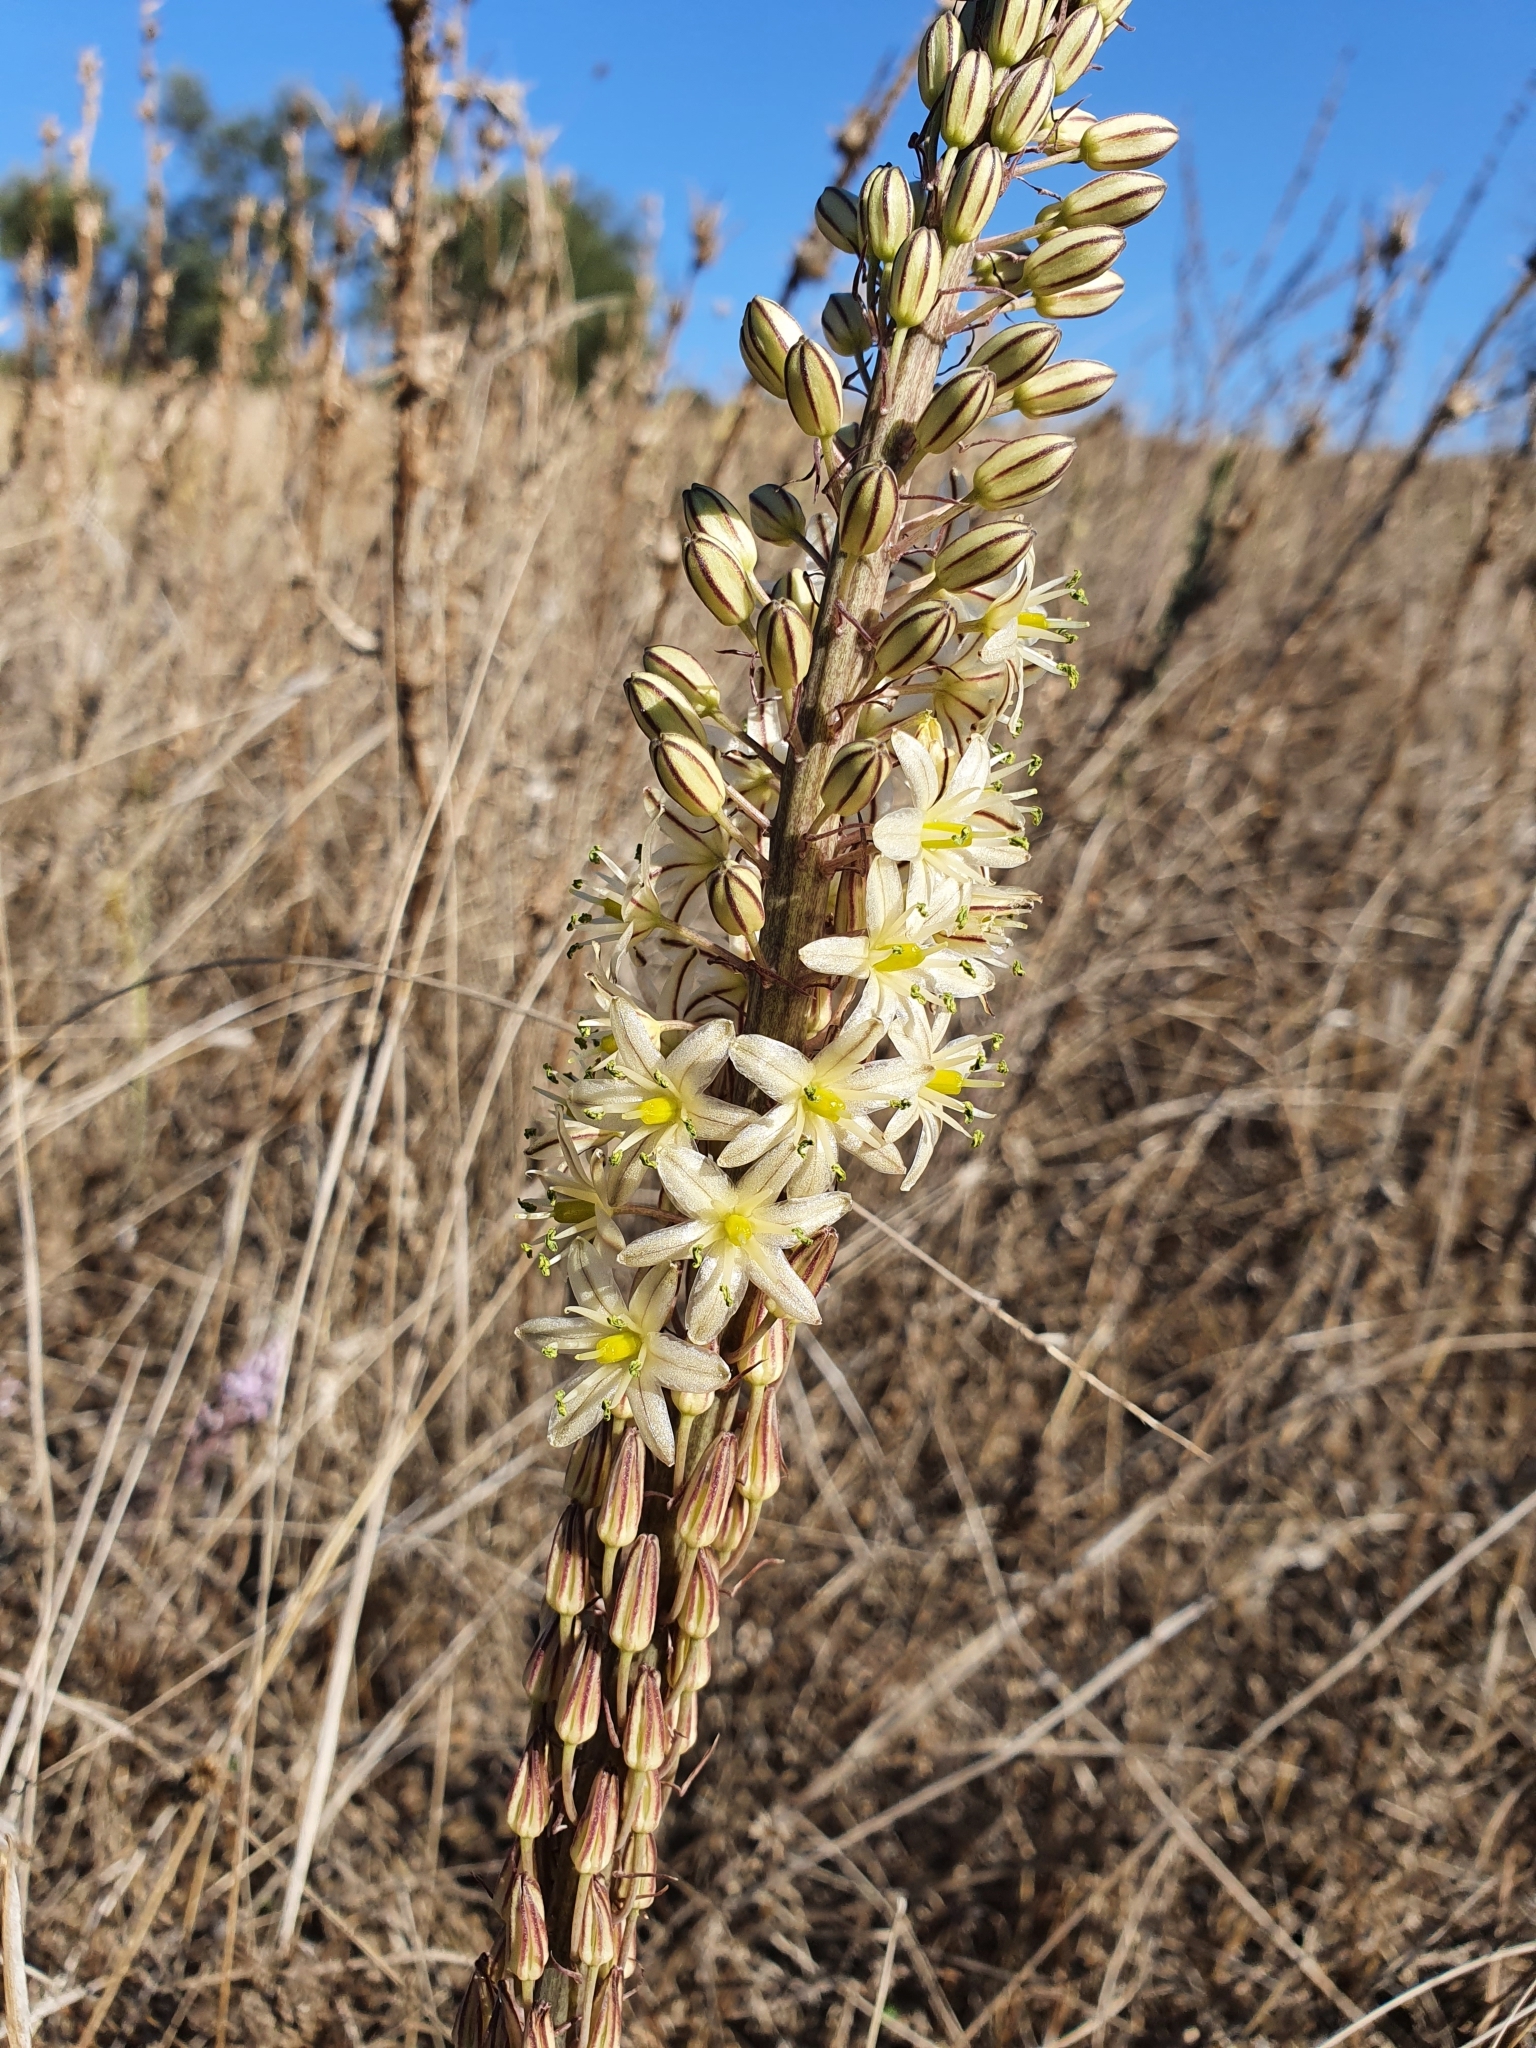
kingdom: Plantae
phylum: Tracheophyta
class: Liliopsida
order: Asparagales
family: Asparagaceae
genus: Drimia
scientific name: Drimia anthericoides
